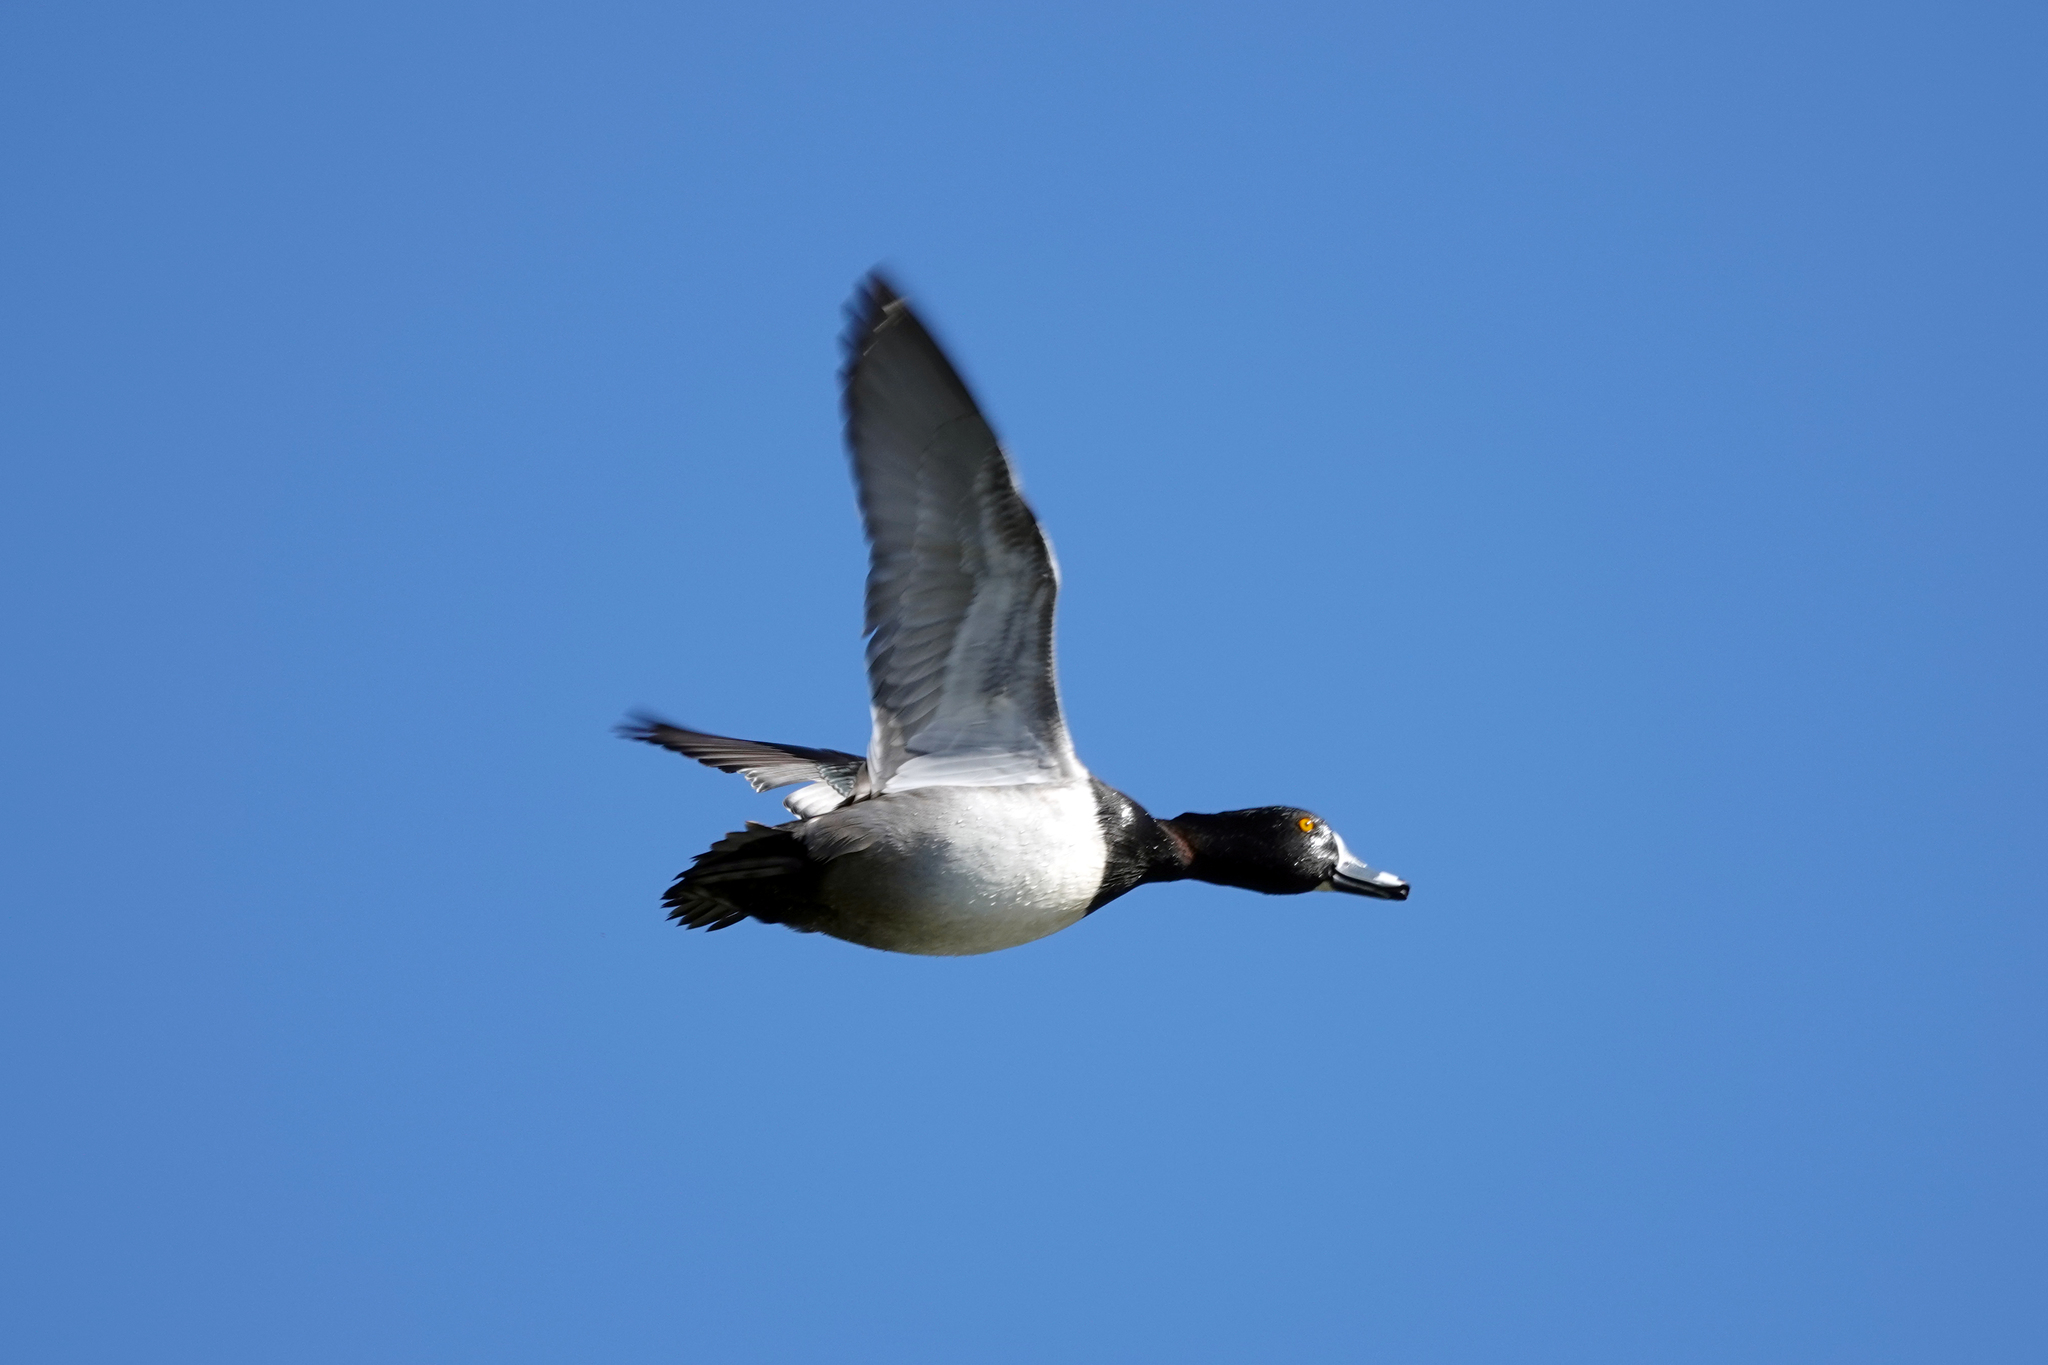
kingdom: Animalia
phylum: Chordata
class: Aves
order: Anseriformes
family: Anatidae
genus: Aythya
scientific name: Aythya collaris
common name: Ring-necked duck
